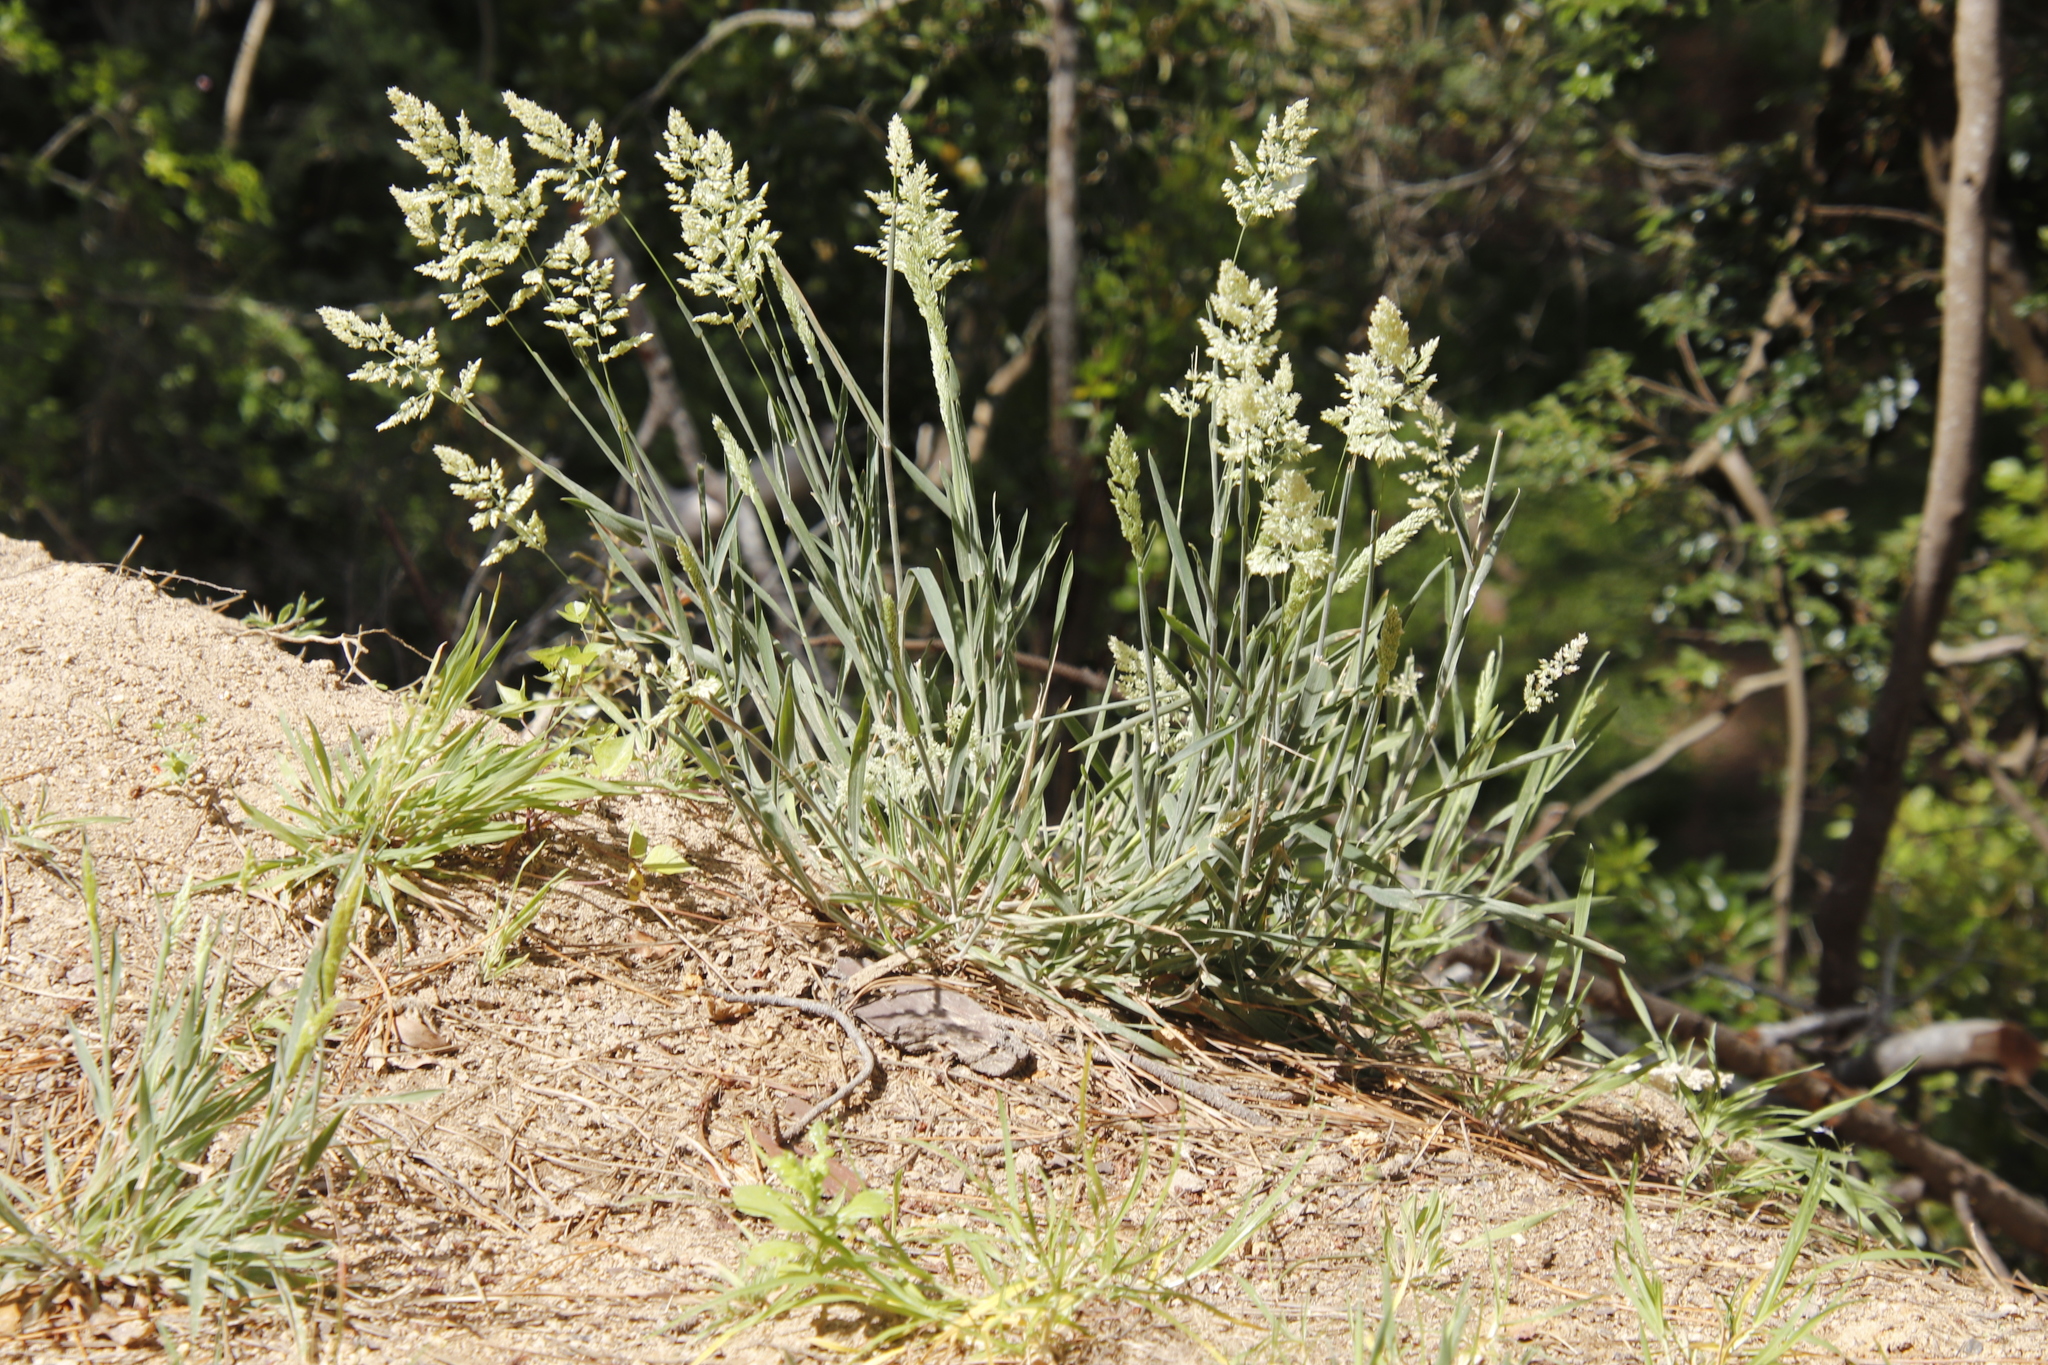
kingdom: Plantae
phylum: Tracheophyta
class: Liliopsida
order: Poales
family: Poaceae
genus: Holcus
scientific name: Holcus lanatus
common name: Yorkshire-fog
